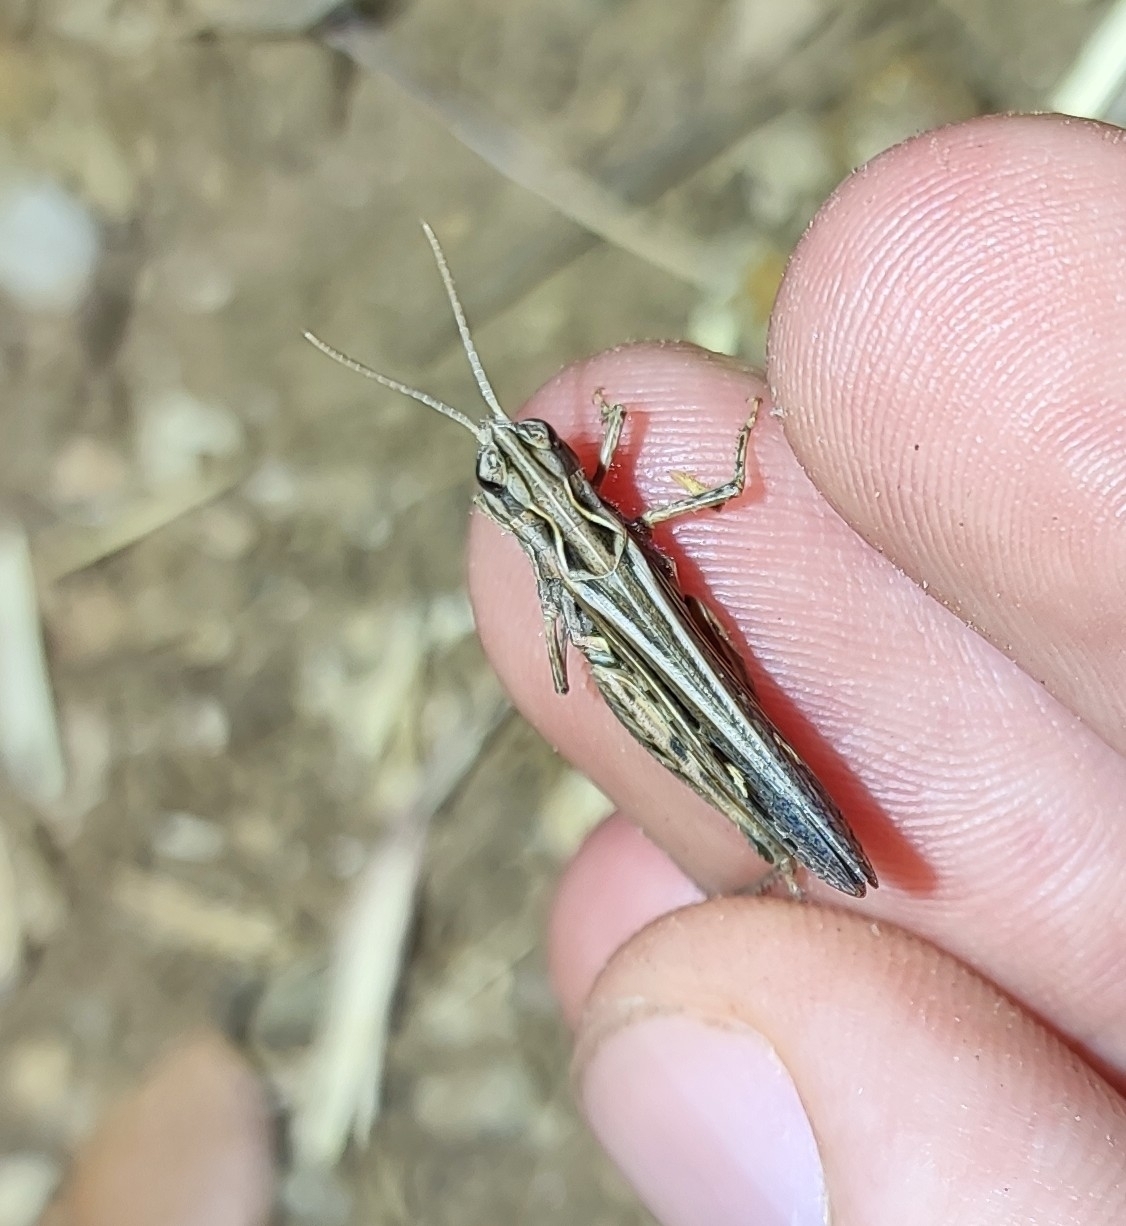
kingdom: Animalia
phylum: Arthropoda
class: Insecta
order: Orthoptera
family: Acrididae
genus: Omocestus
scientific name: Omocestus raymondi
